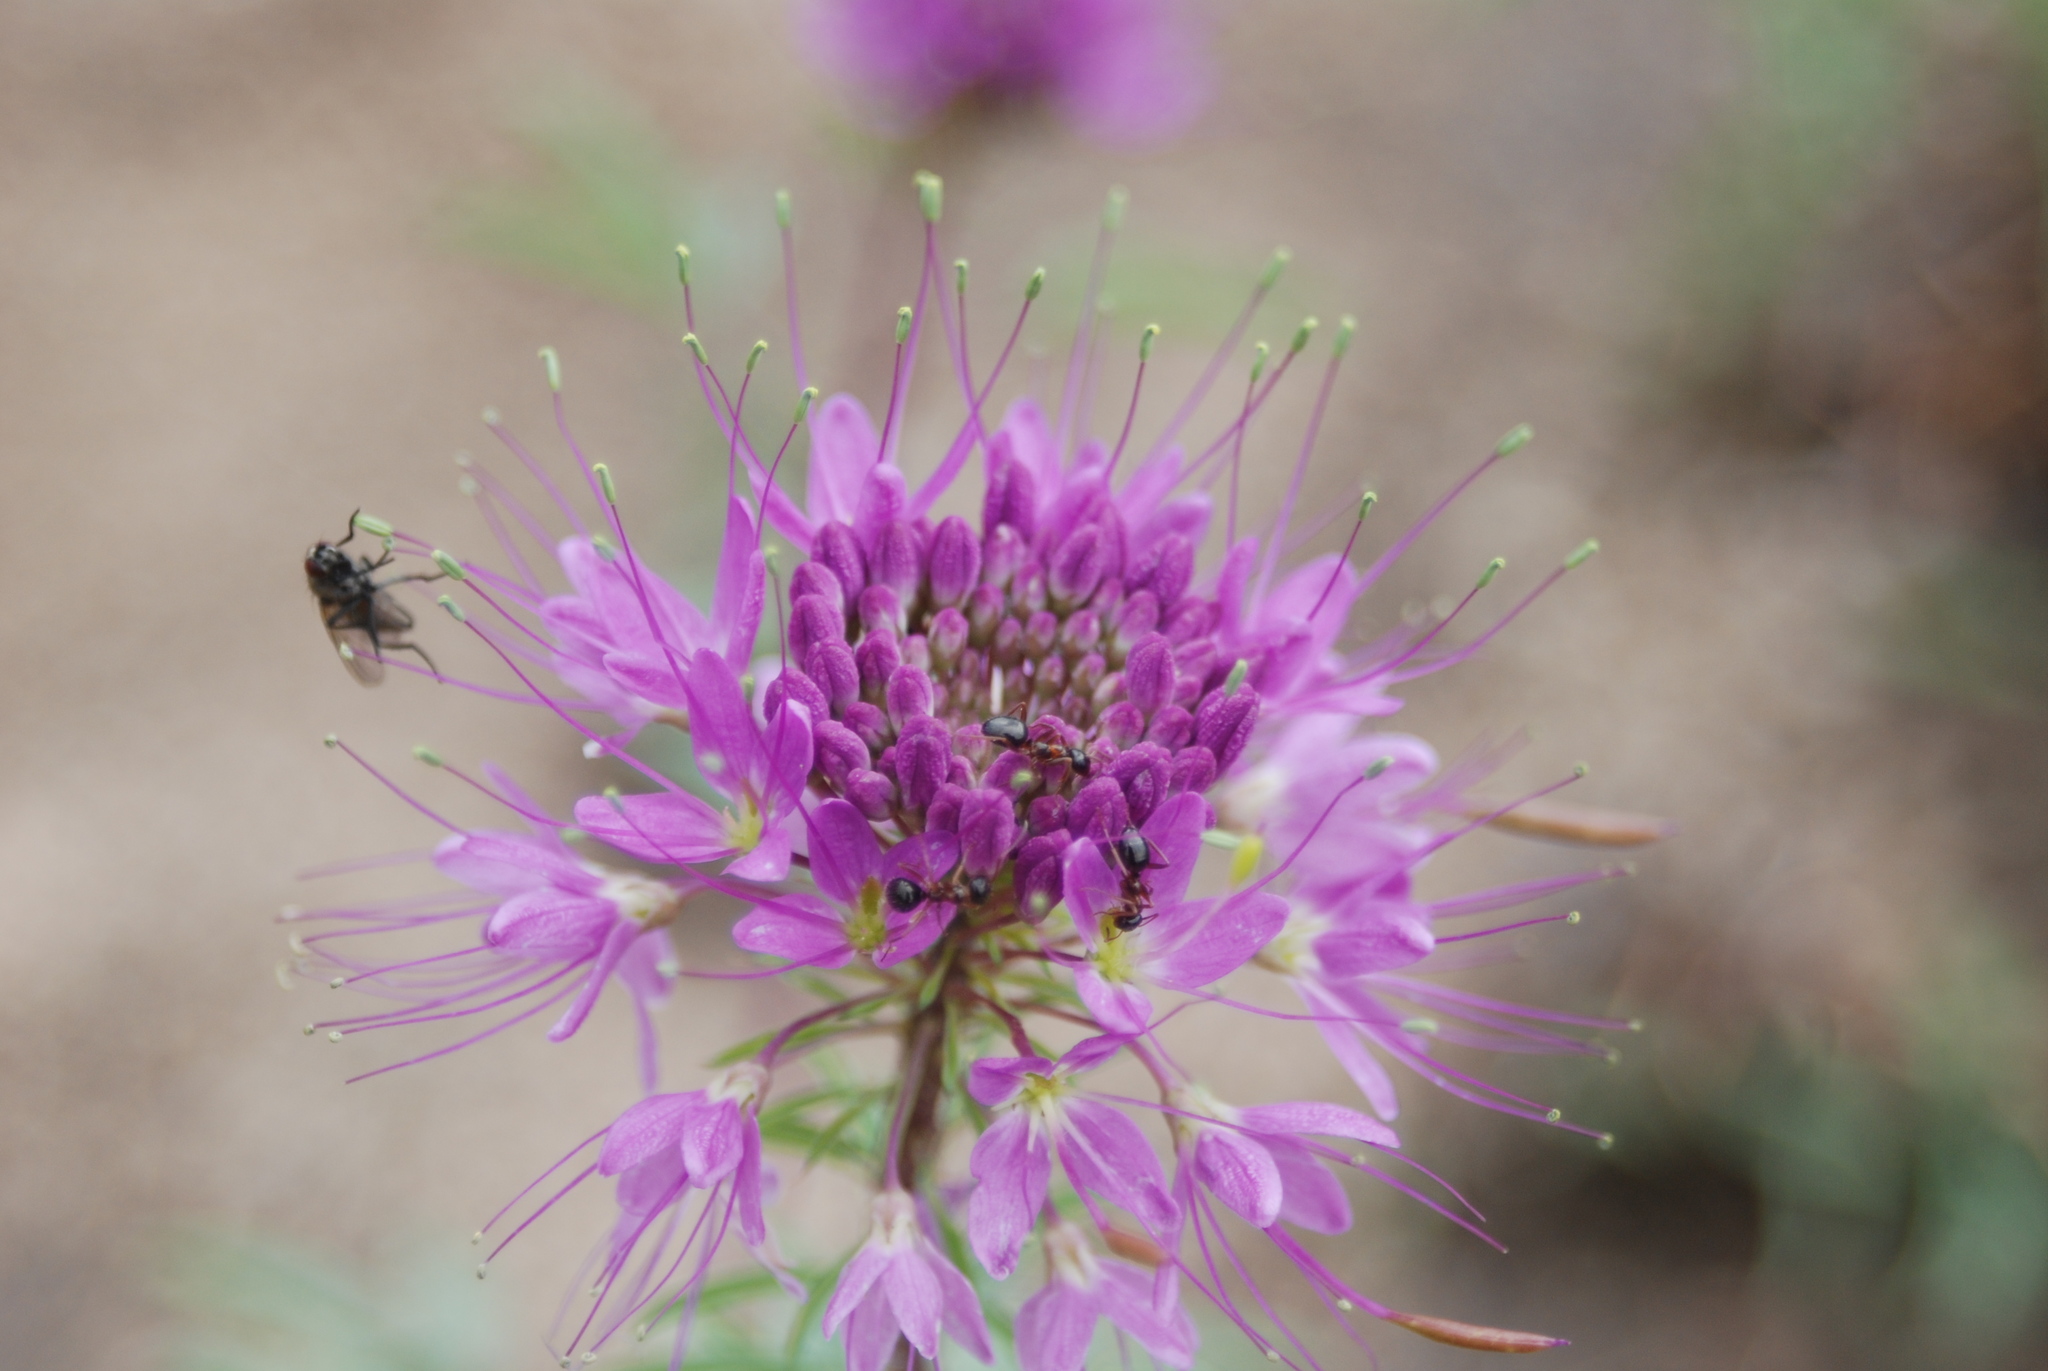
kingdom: Plantae
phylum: Tracheophyta
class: Magnoliopsida
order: Brassicales
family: Cleomaceae
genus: Cleomella
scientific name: Cleomella serrulata
